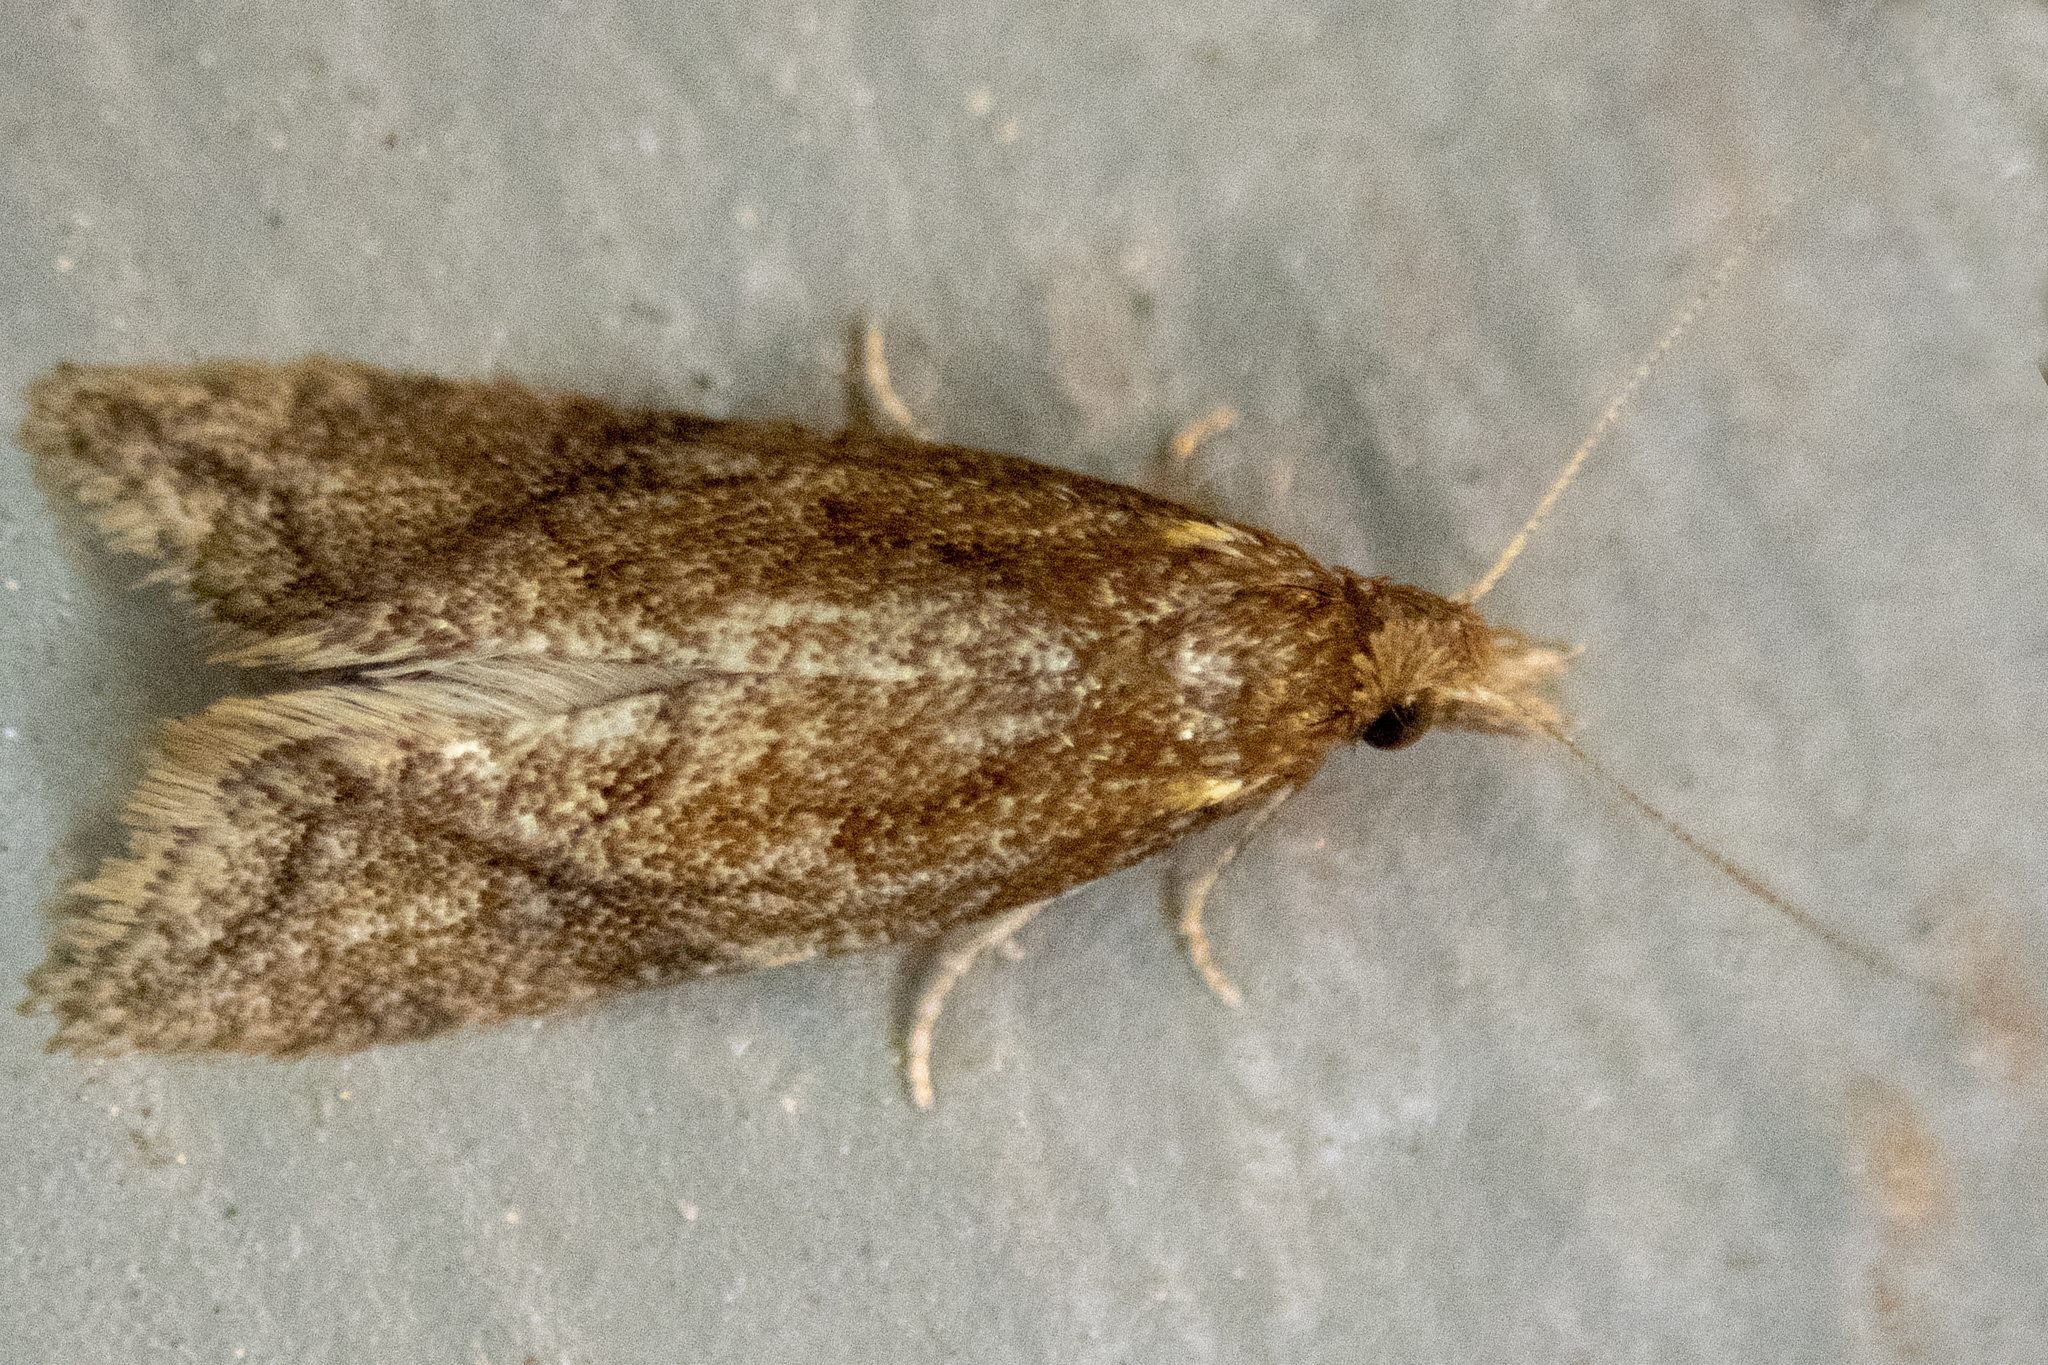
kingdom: Animalia
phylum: Arthropoda
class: Insecta
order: Lepidoptera
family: Tortricidae
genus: Aethes
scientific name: Aethes biscana
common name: Reddish aethes
